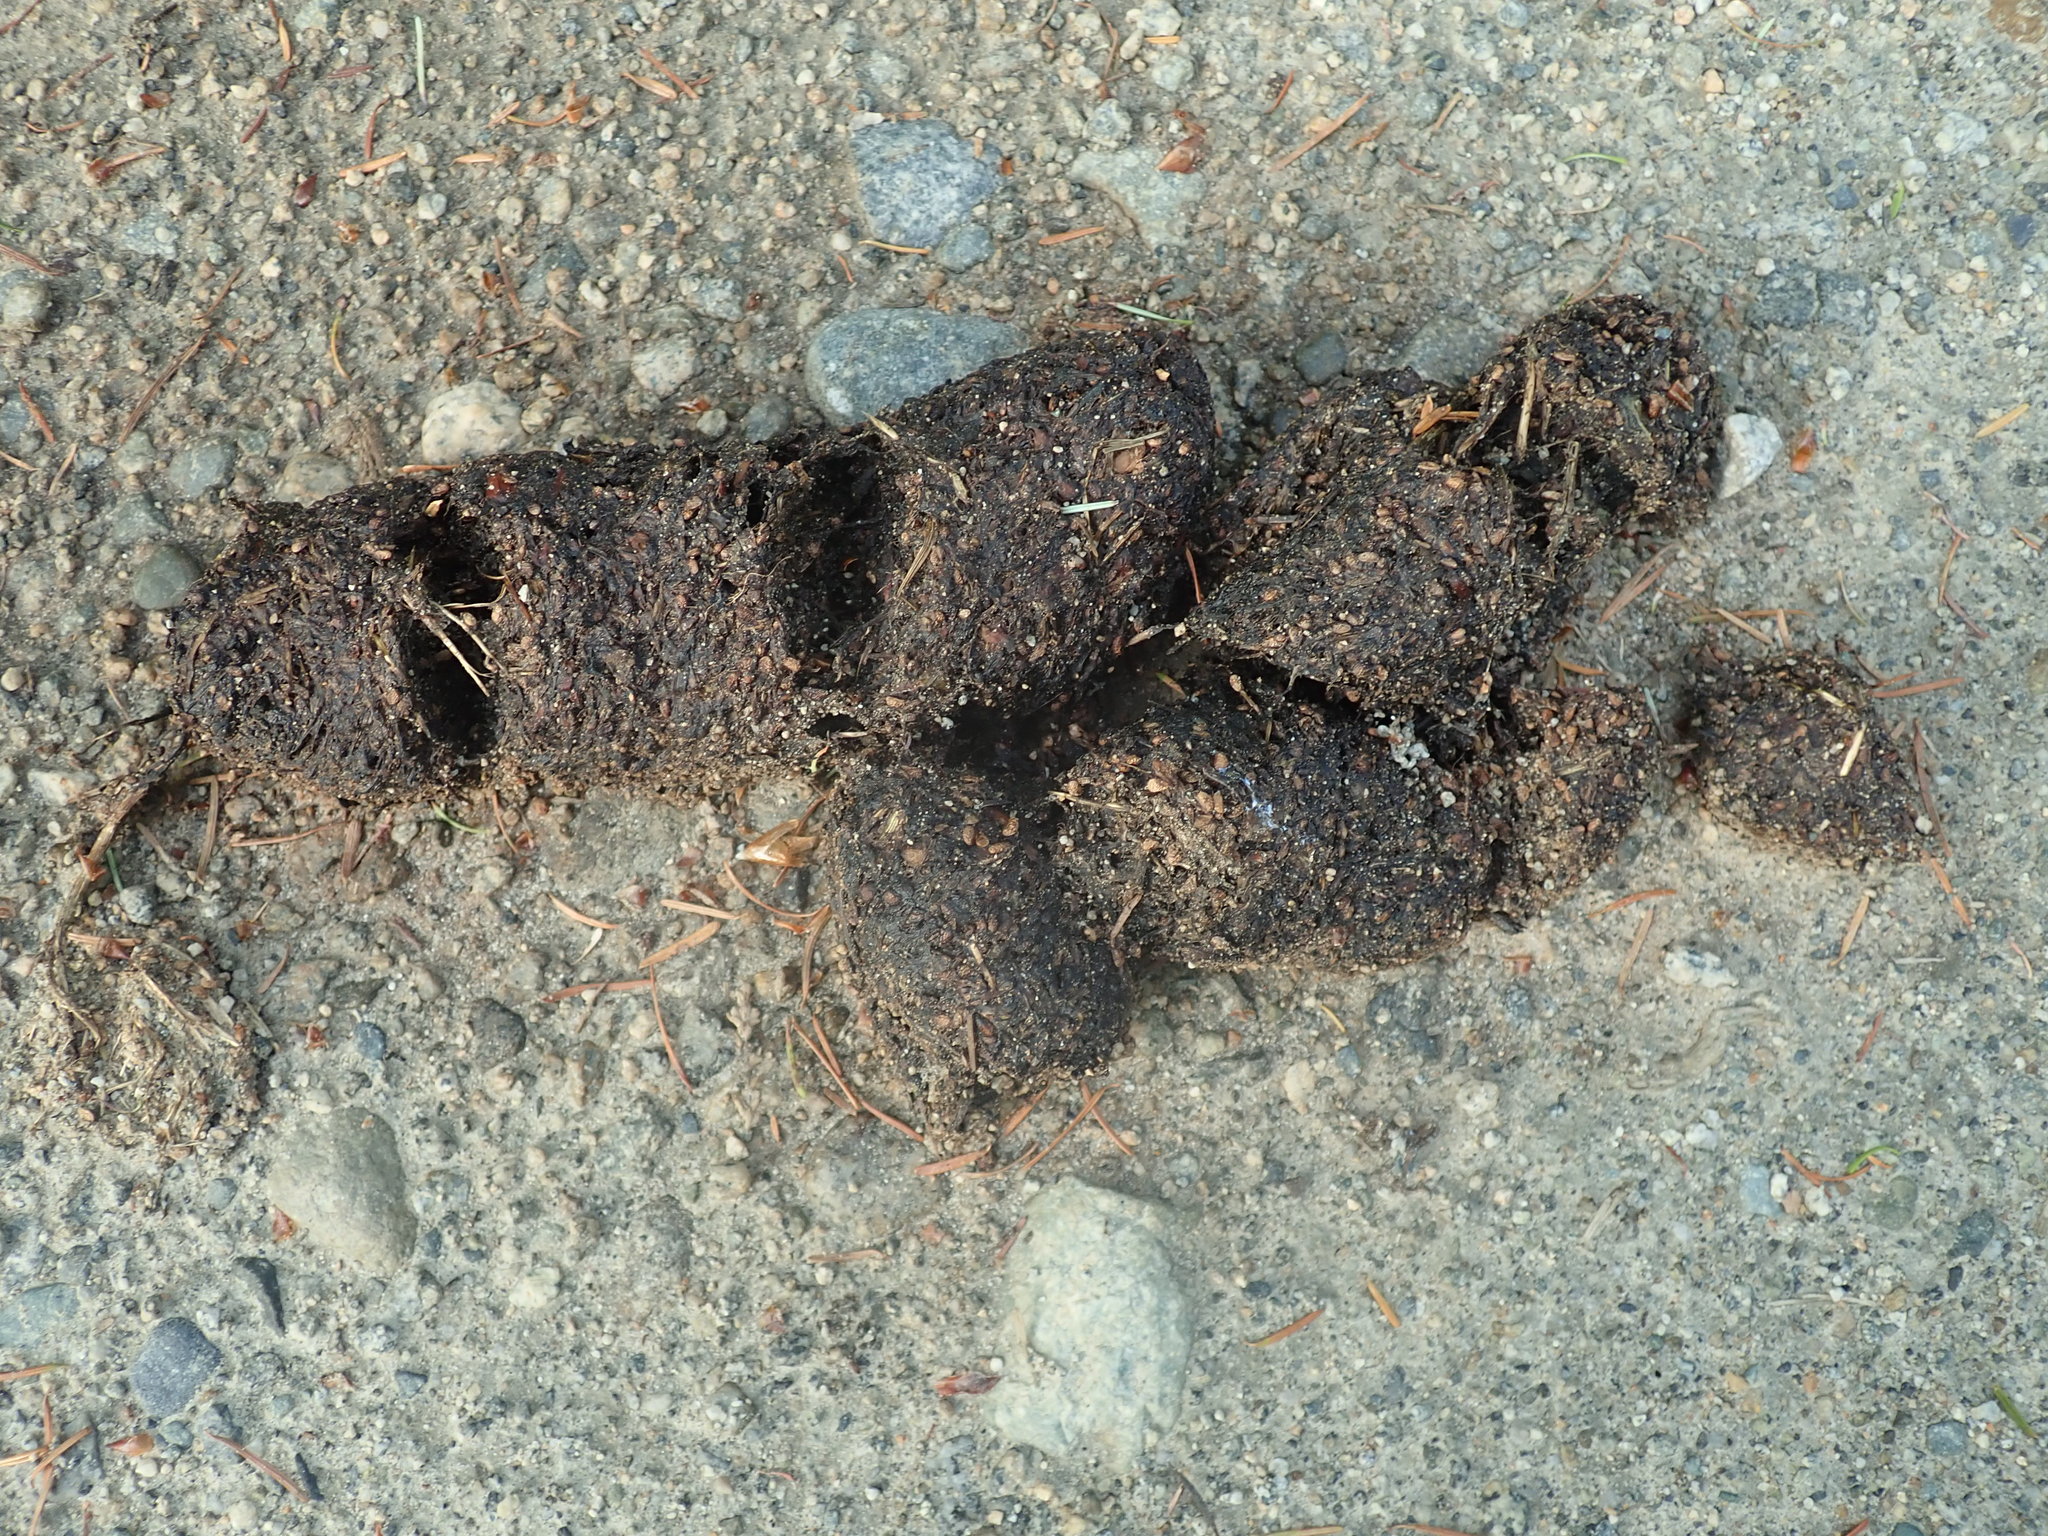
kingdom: Animalia
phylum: Chordata
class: Mammalia
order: Carnivora
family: Ursidae
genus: Ursus
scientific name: Ursus americanus
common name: American black bear
